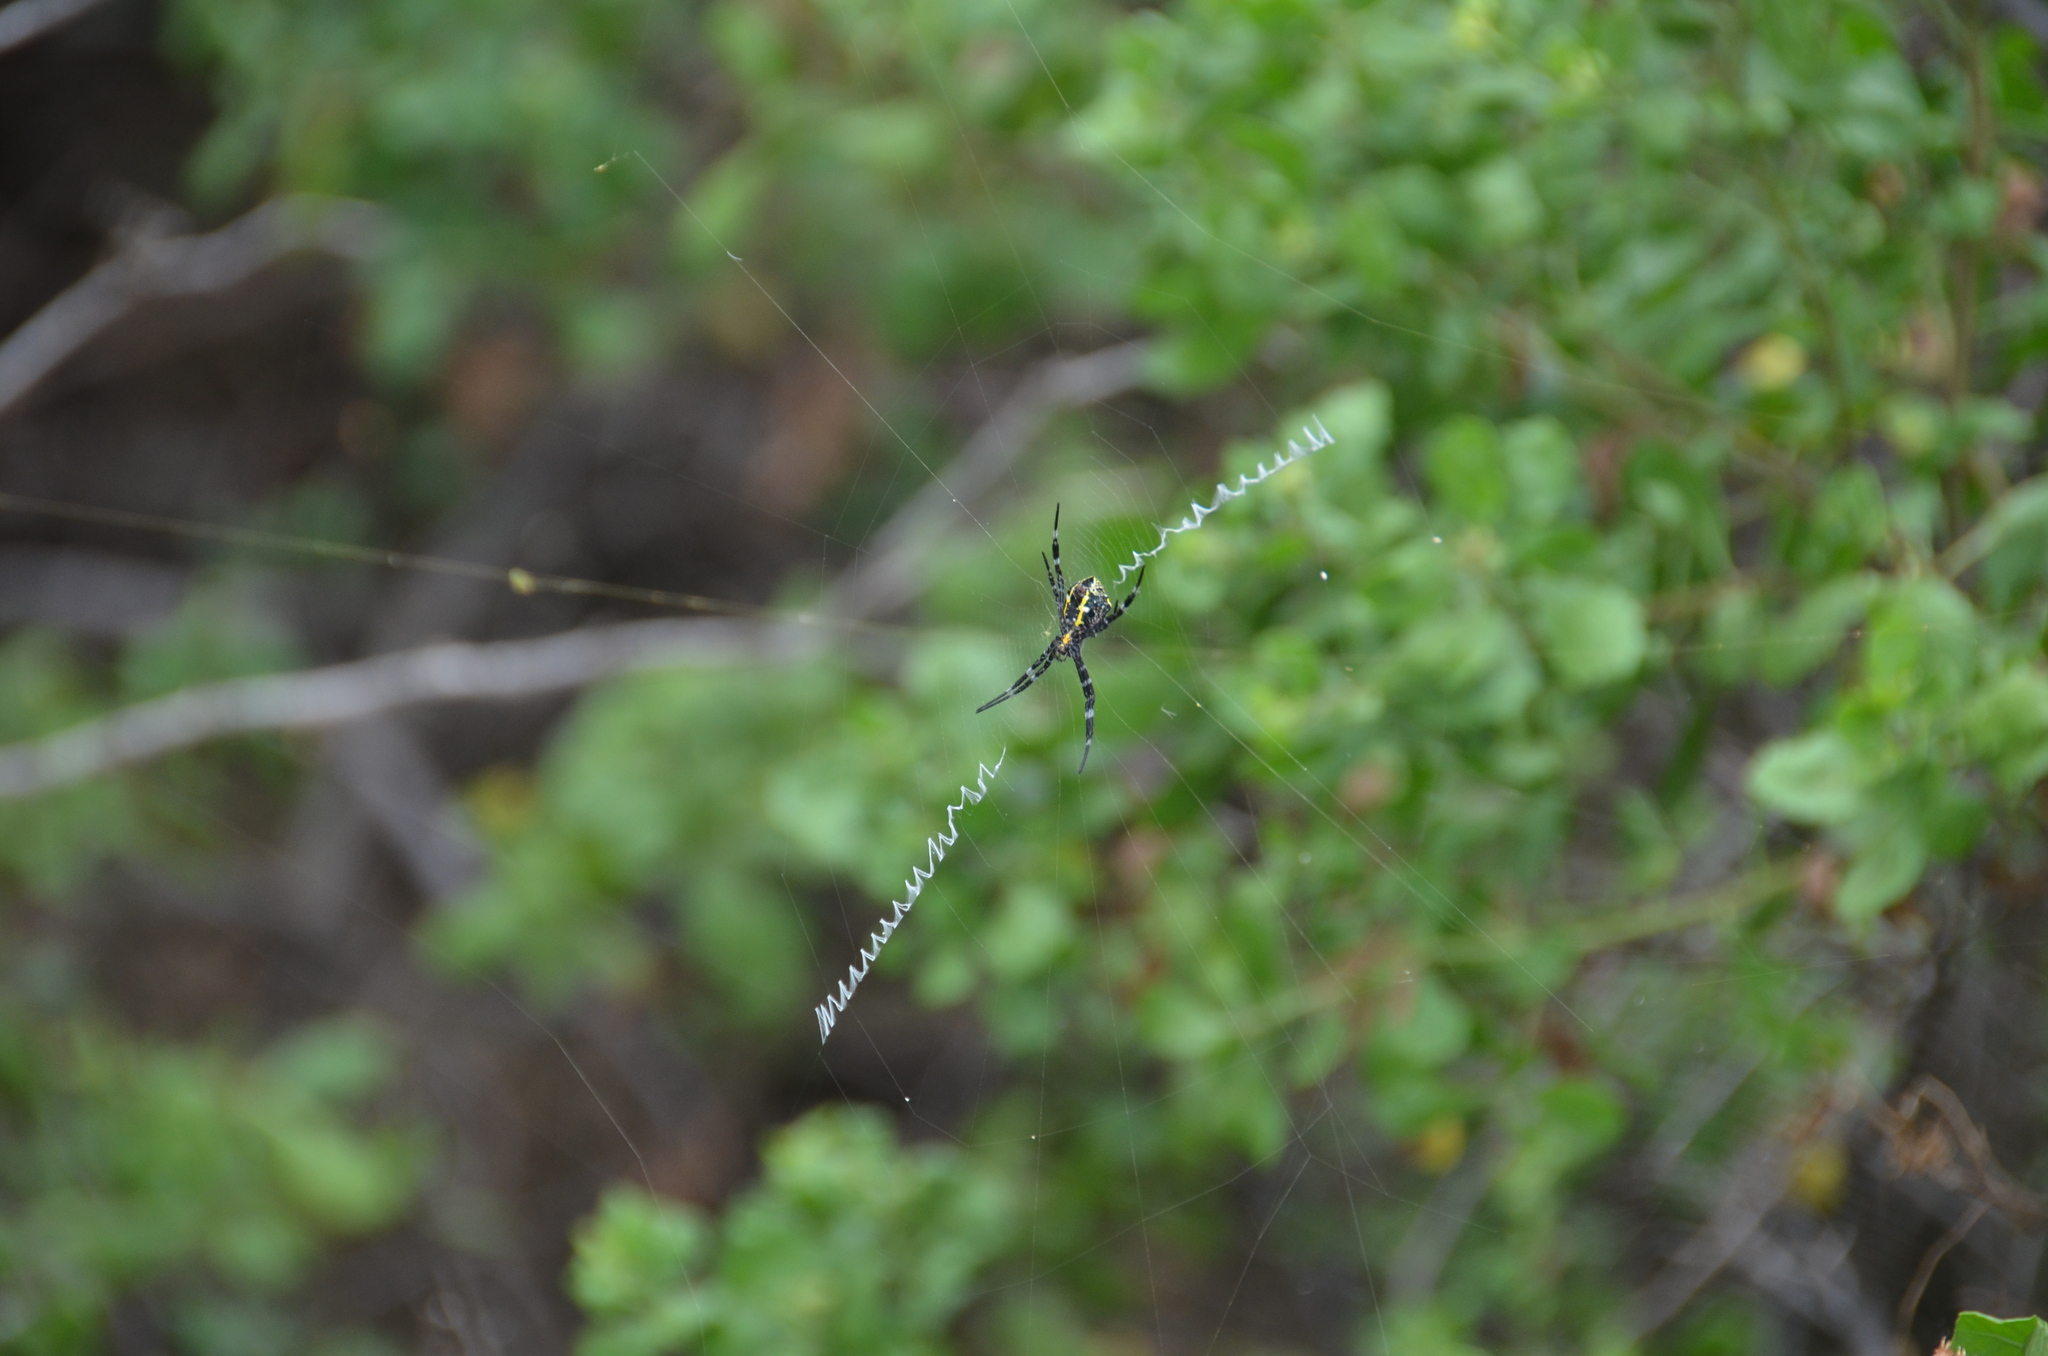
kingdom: Animalia
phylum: Arthropoda
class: Arachnida
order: Araneae
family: Araneidae
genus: Argiope
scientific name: Argiope appensa
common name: Garden spider
